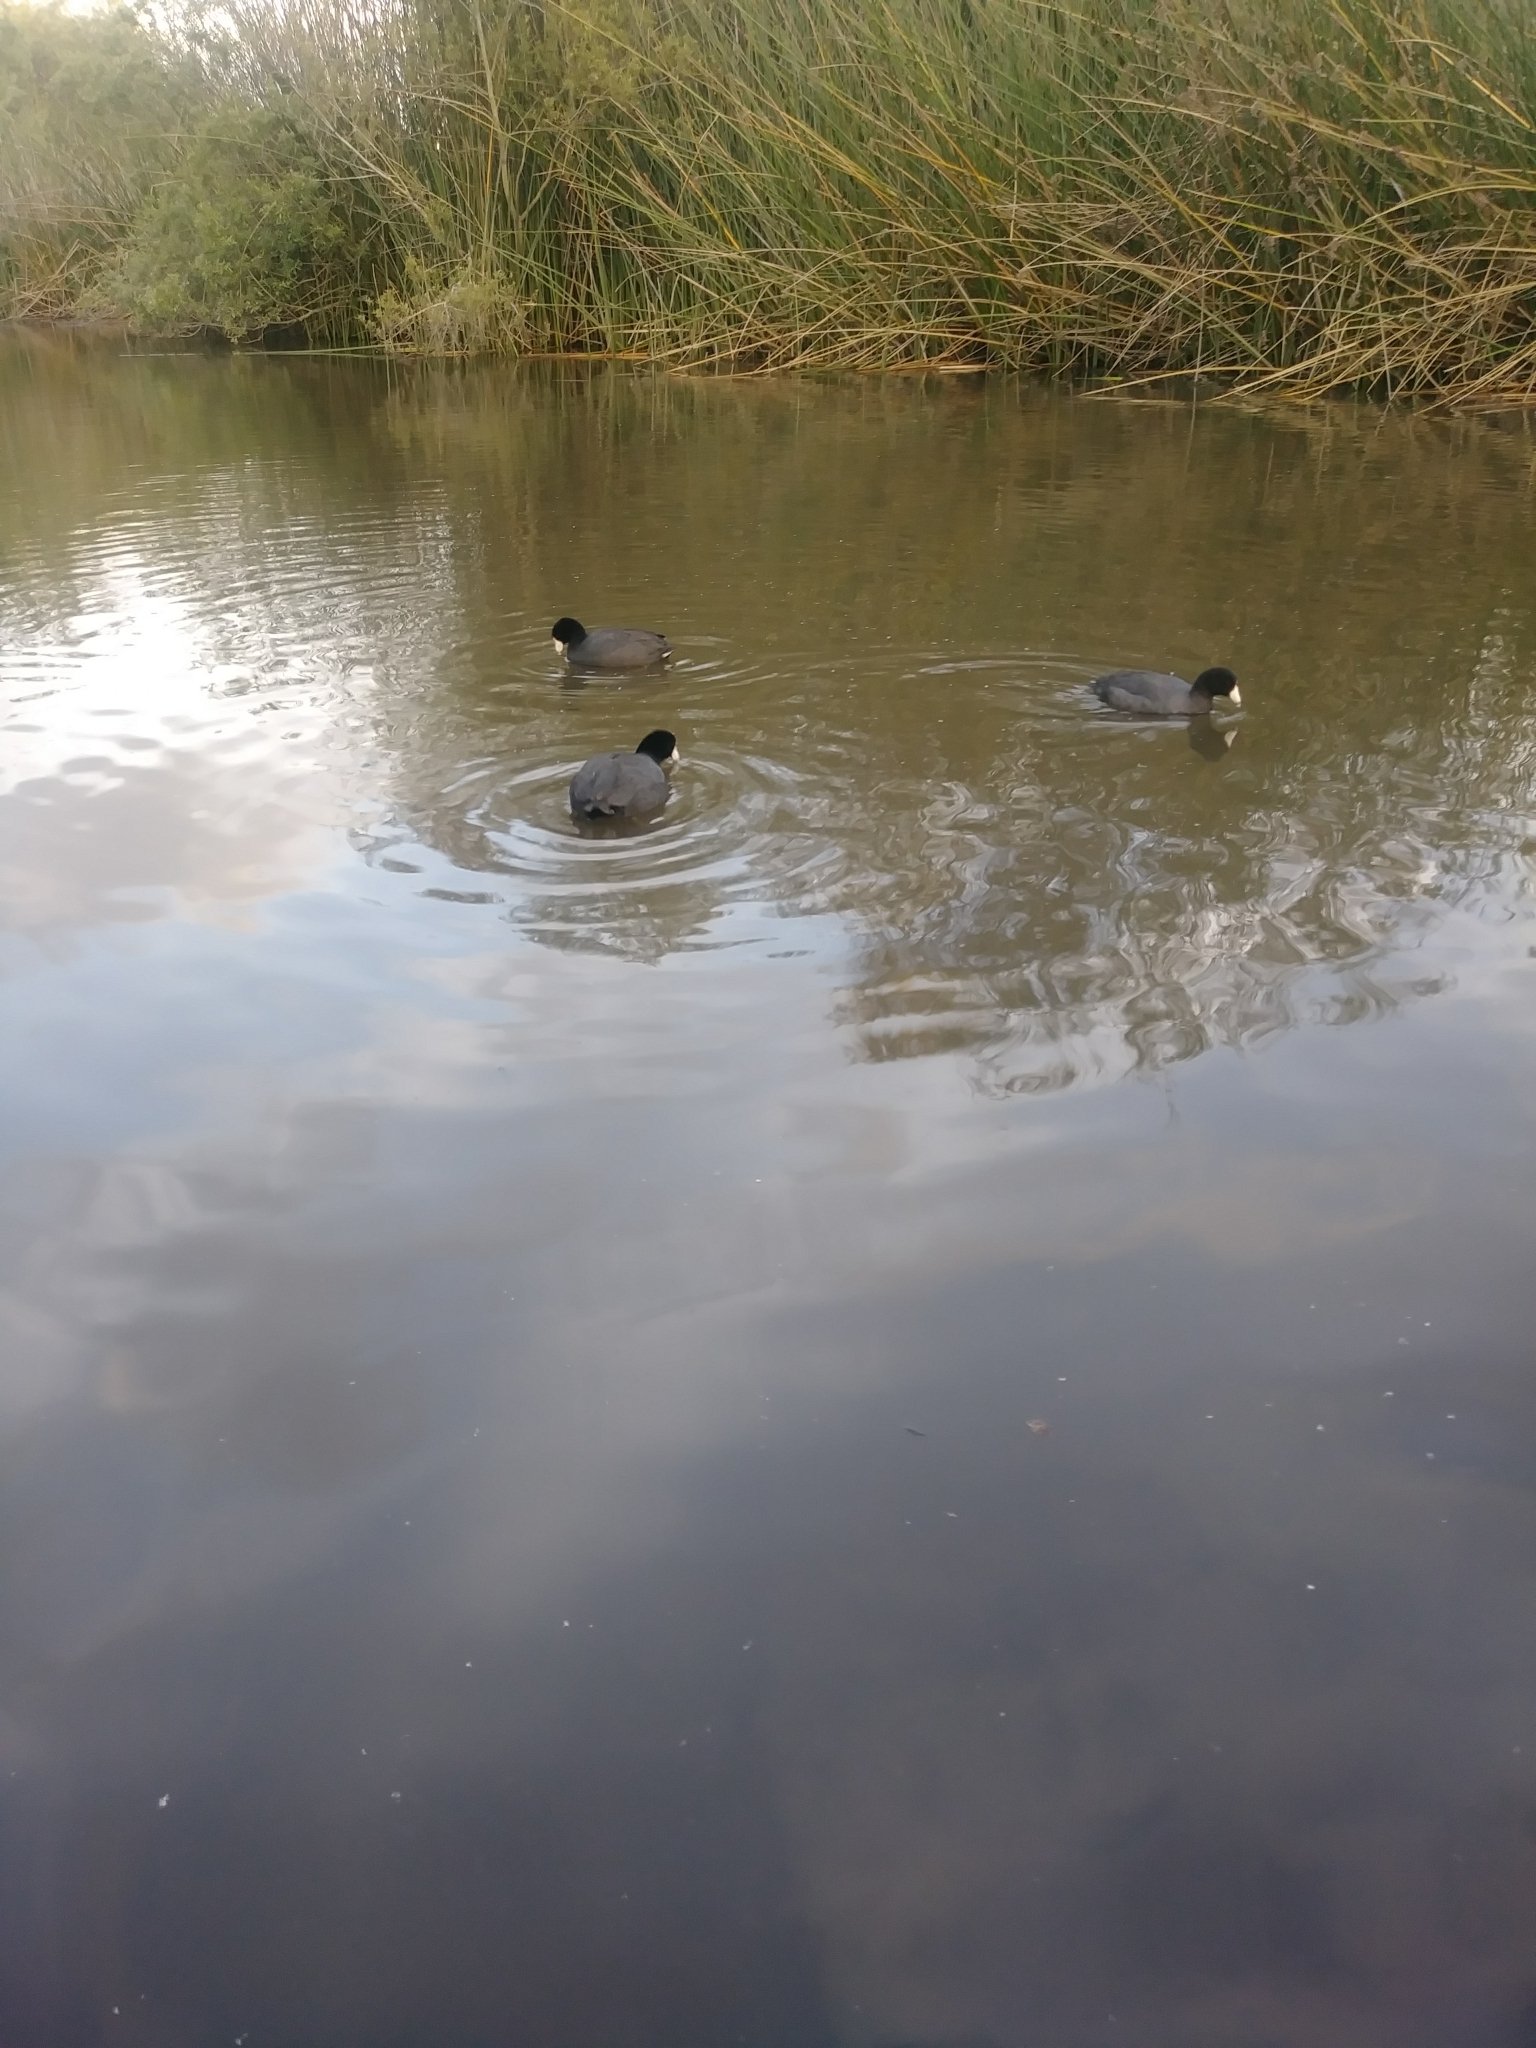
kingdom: Animalia
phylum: Chordata
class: Aves
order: Gruiformes
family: Rallidae
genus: Fulica
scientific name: Fulica americana
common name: American coot
